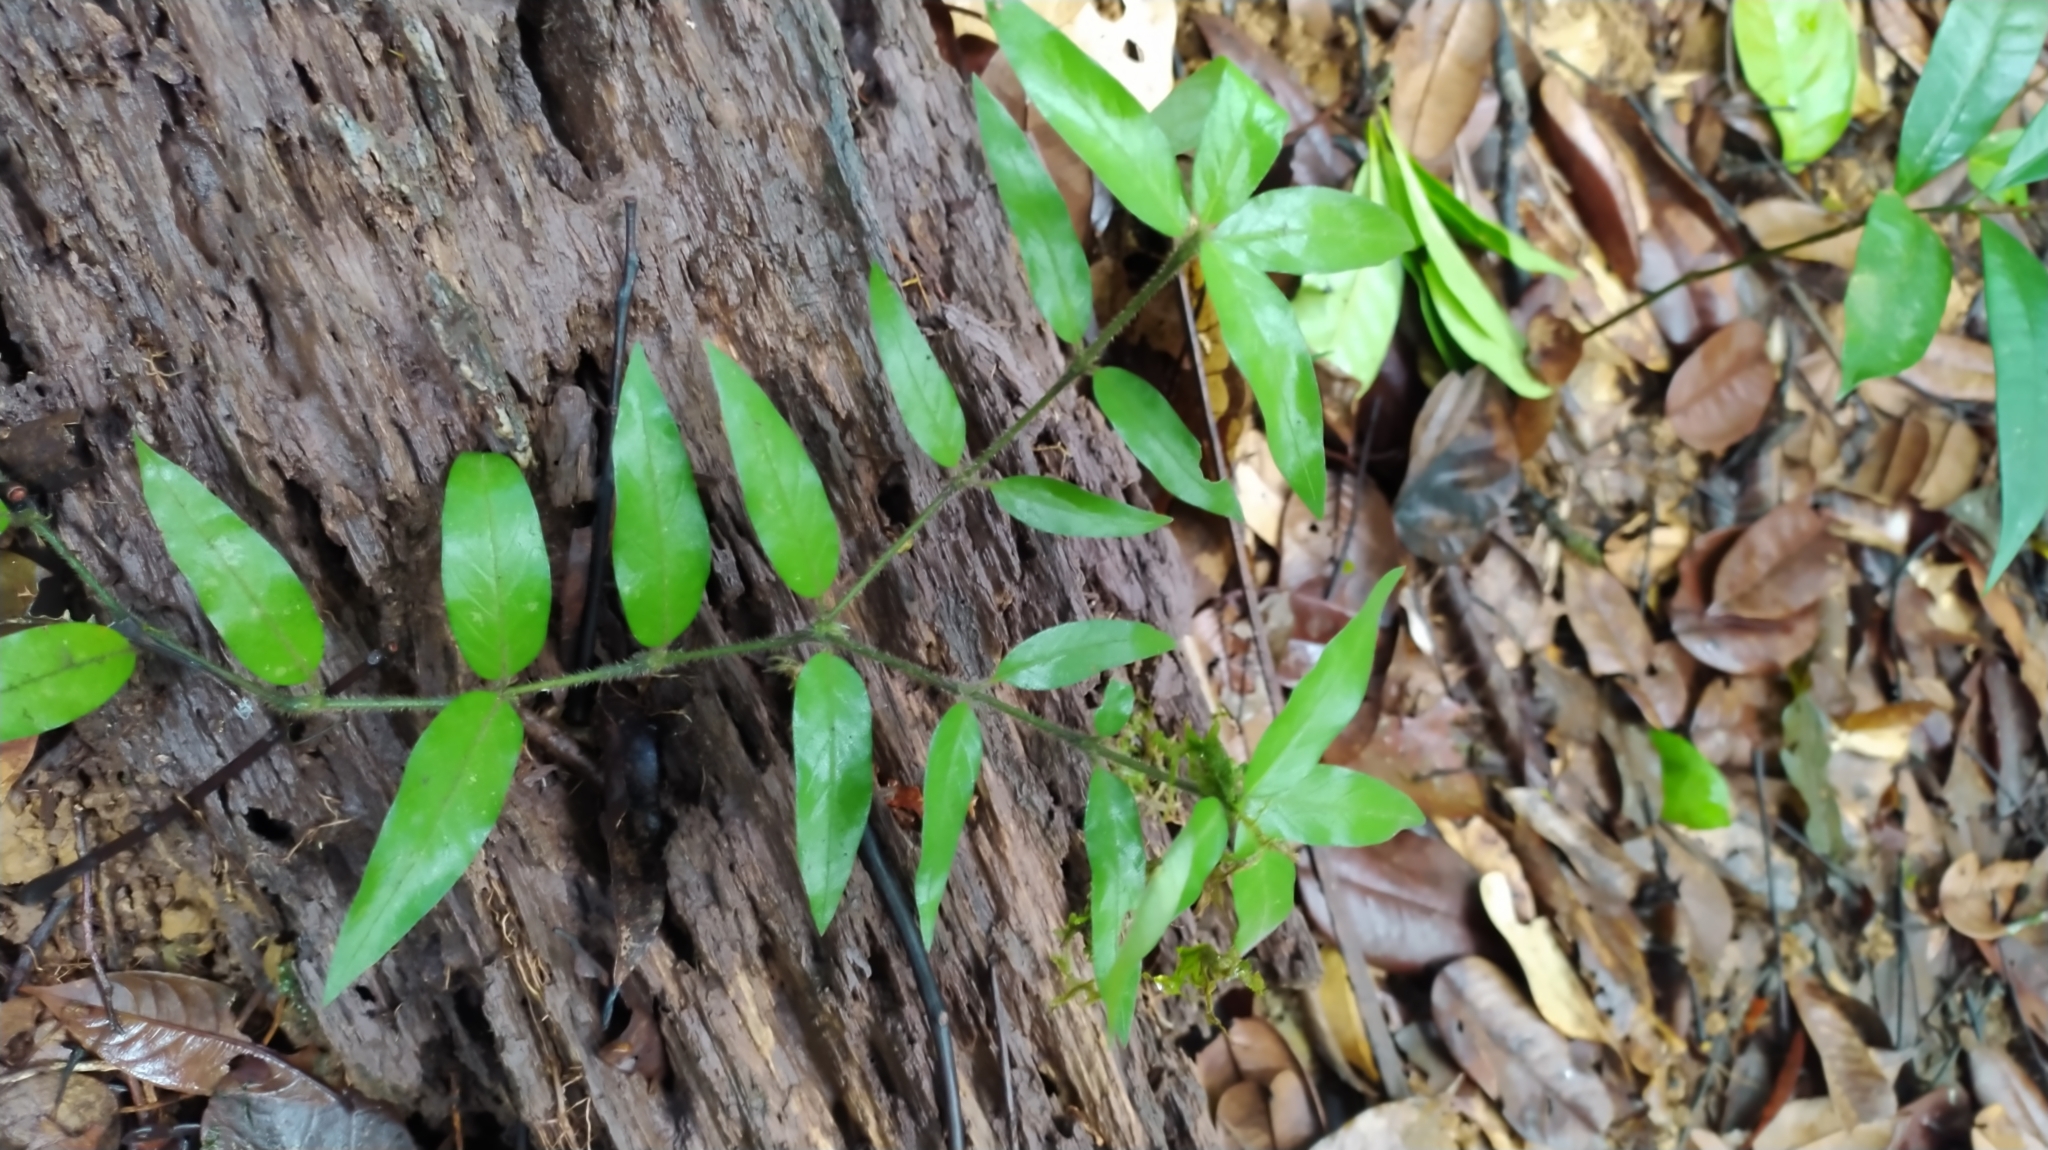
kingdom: Plantae
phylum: Tracheophyta
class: Magnoliopsida
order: Gentianales
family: Rubiaceae
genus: Palicourea
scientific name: Palicourea callithrix
